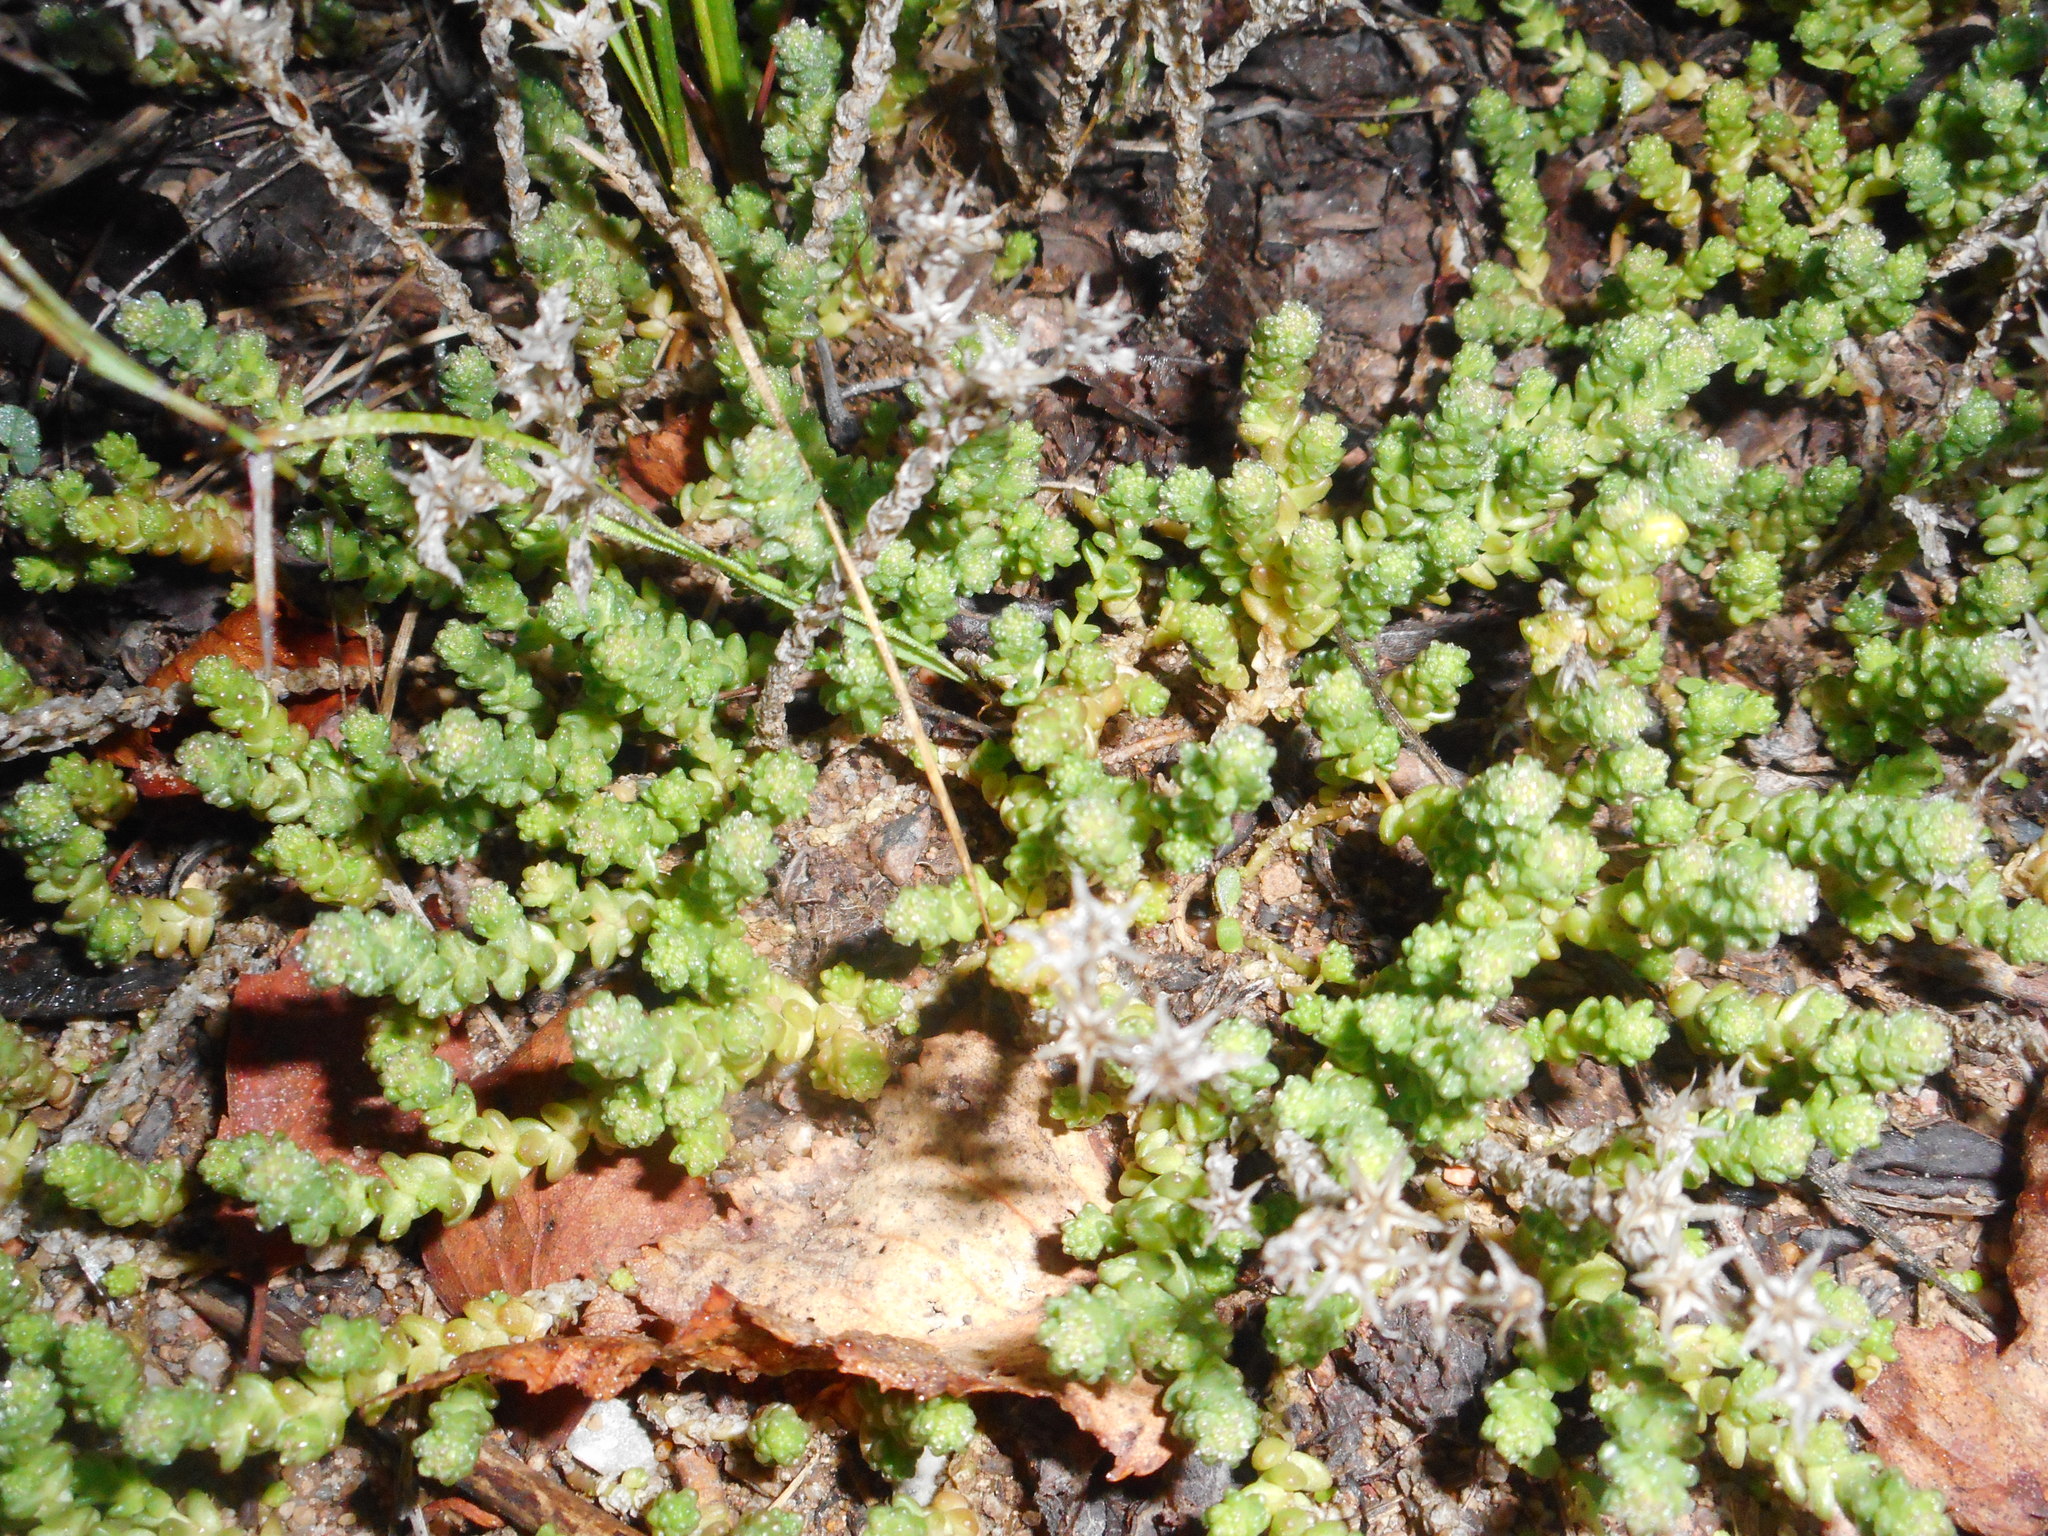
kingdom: Plantae
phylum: Tracheophyta
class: Magnoliopsida
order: Saxifragales
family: Crassulaceae
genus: Sedum
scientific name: Sedum acre
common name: Biting stonecrop
